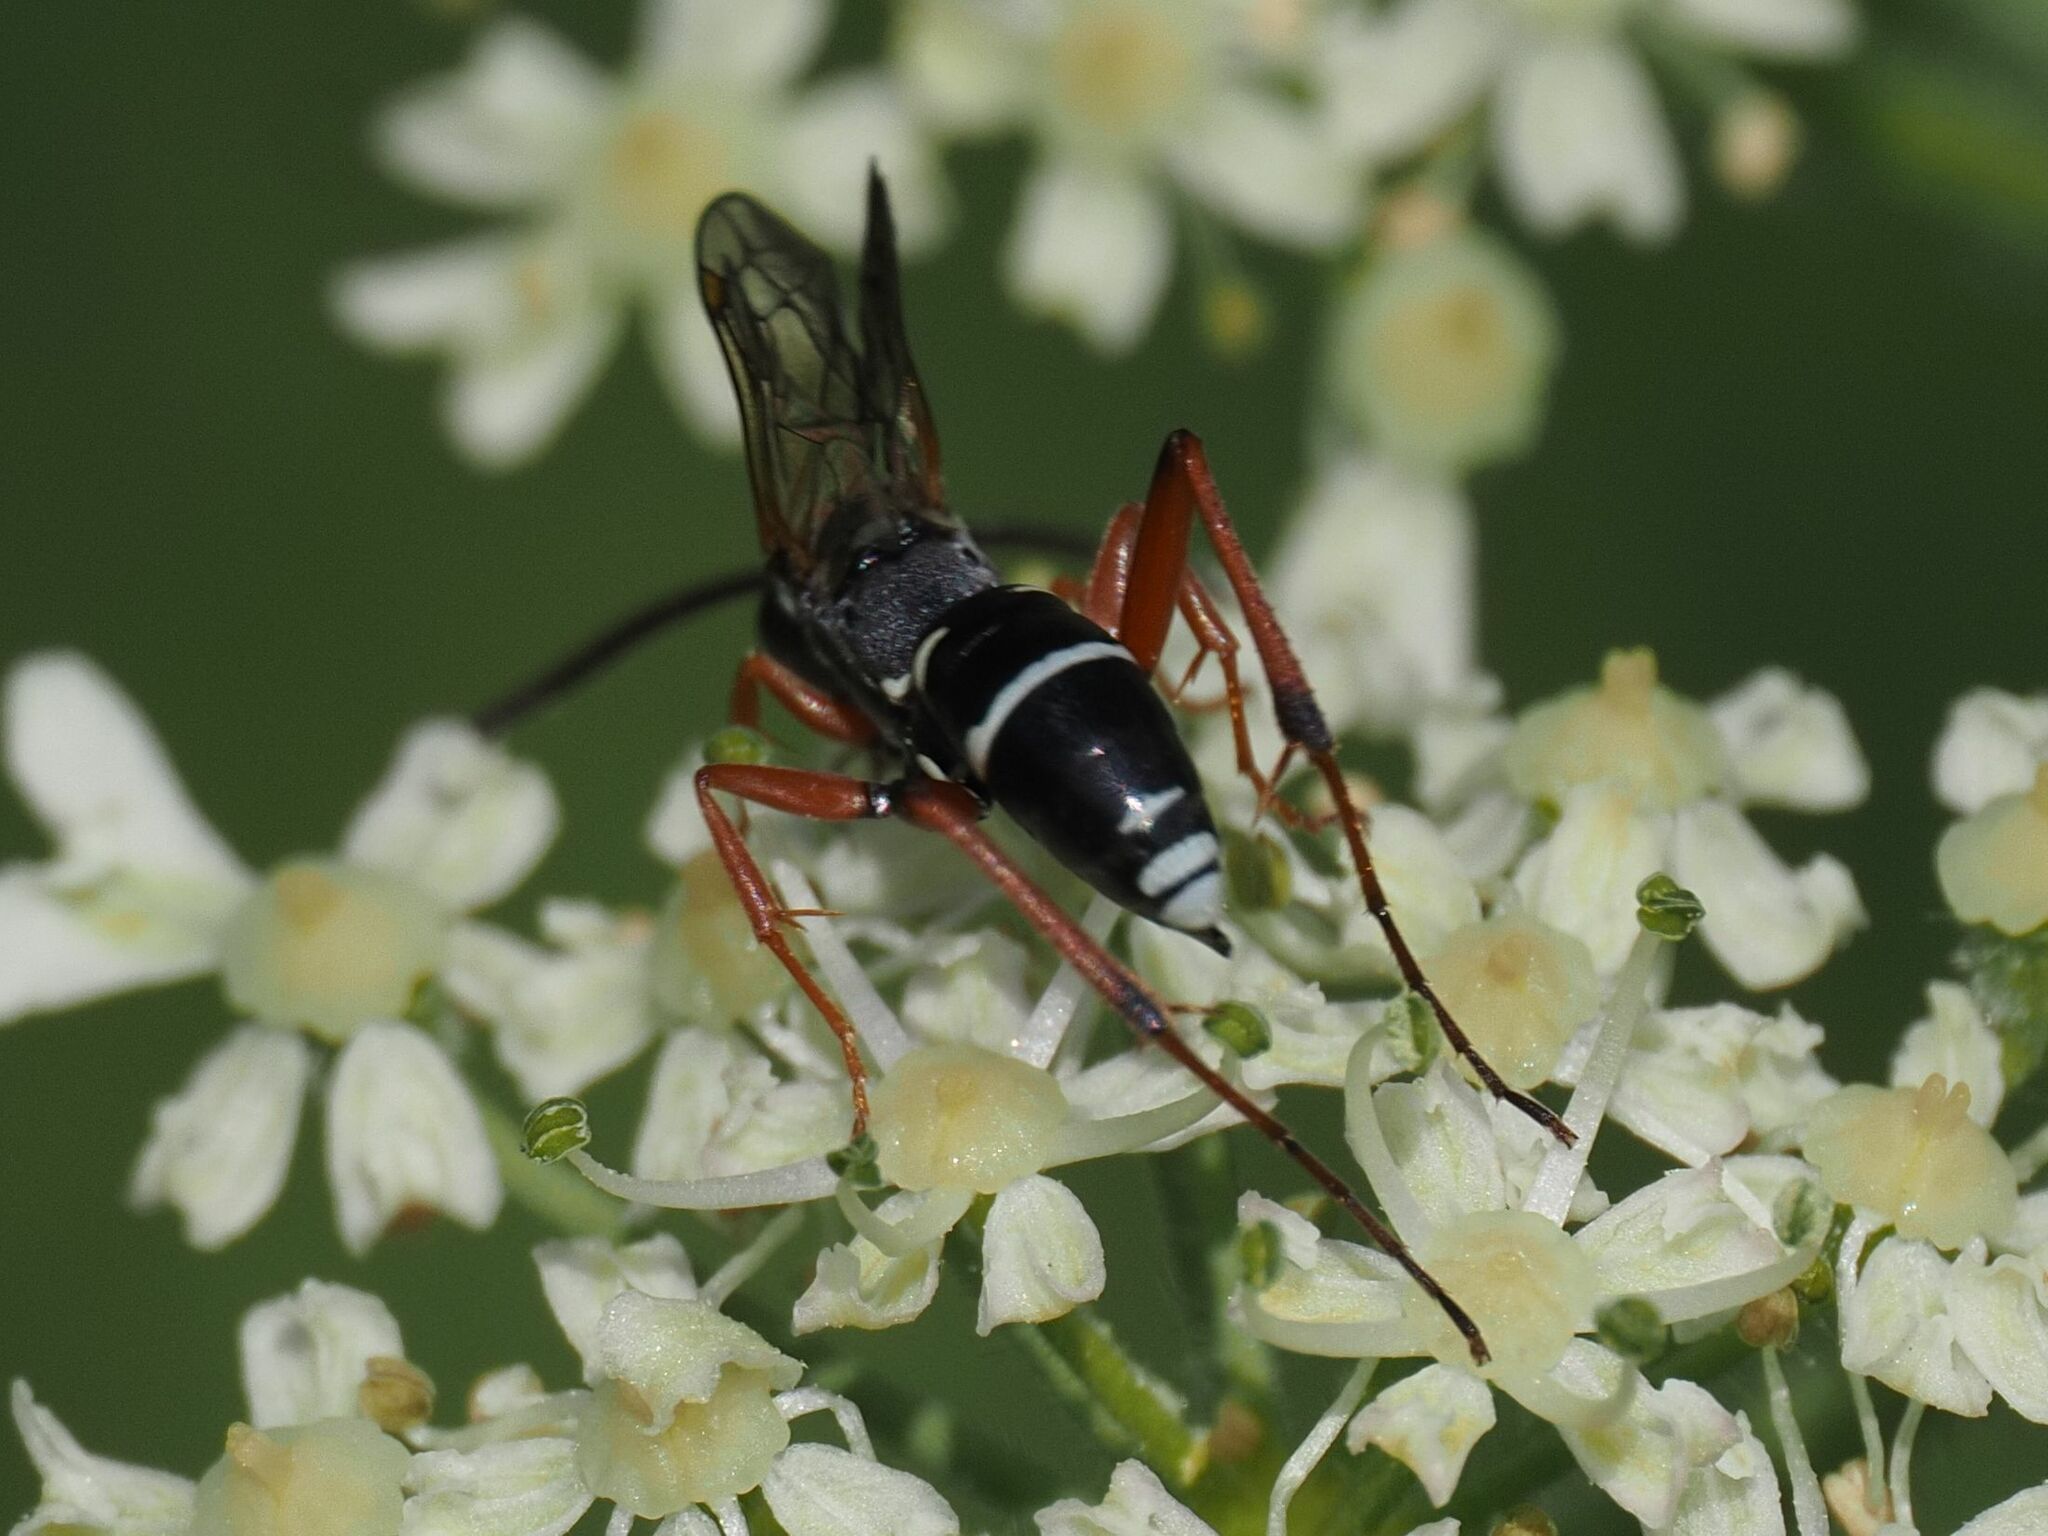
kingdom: Animalia
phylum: Arthropoda
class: Insecta
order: Hymenoptera
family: Pompilidae
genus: Ceropales
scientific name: Ceropales maculata
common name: Spider wasp
